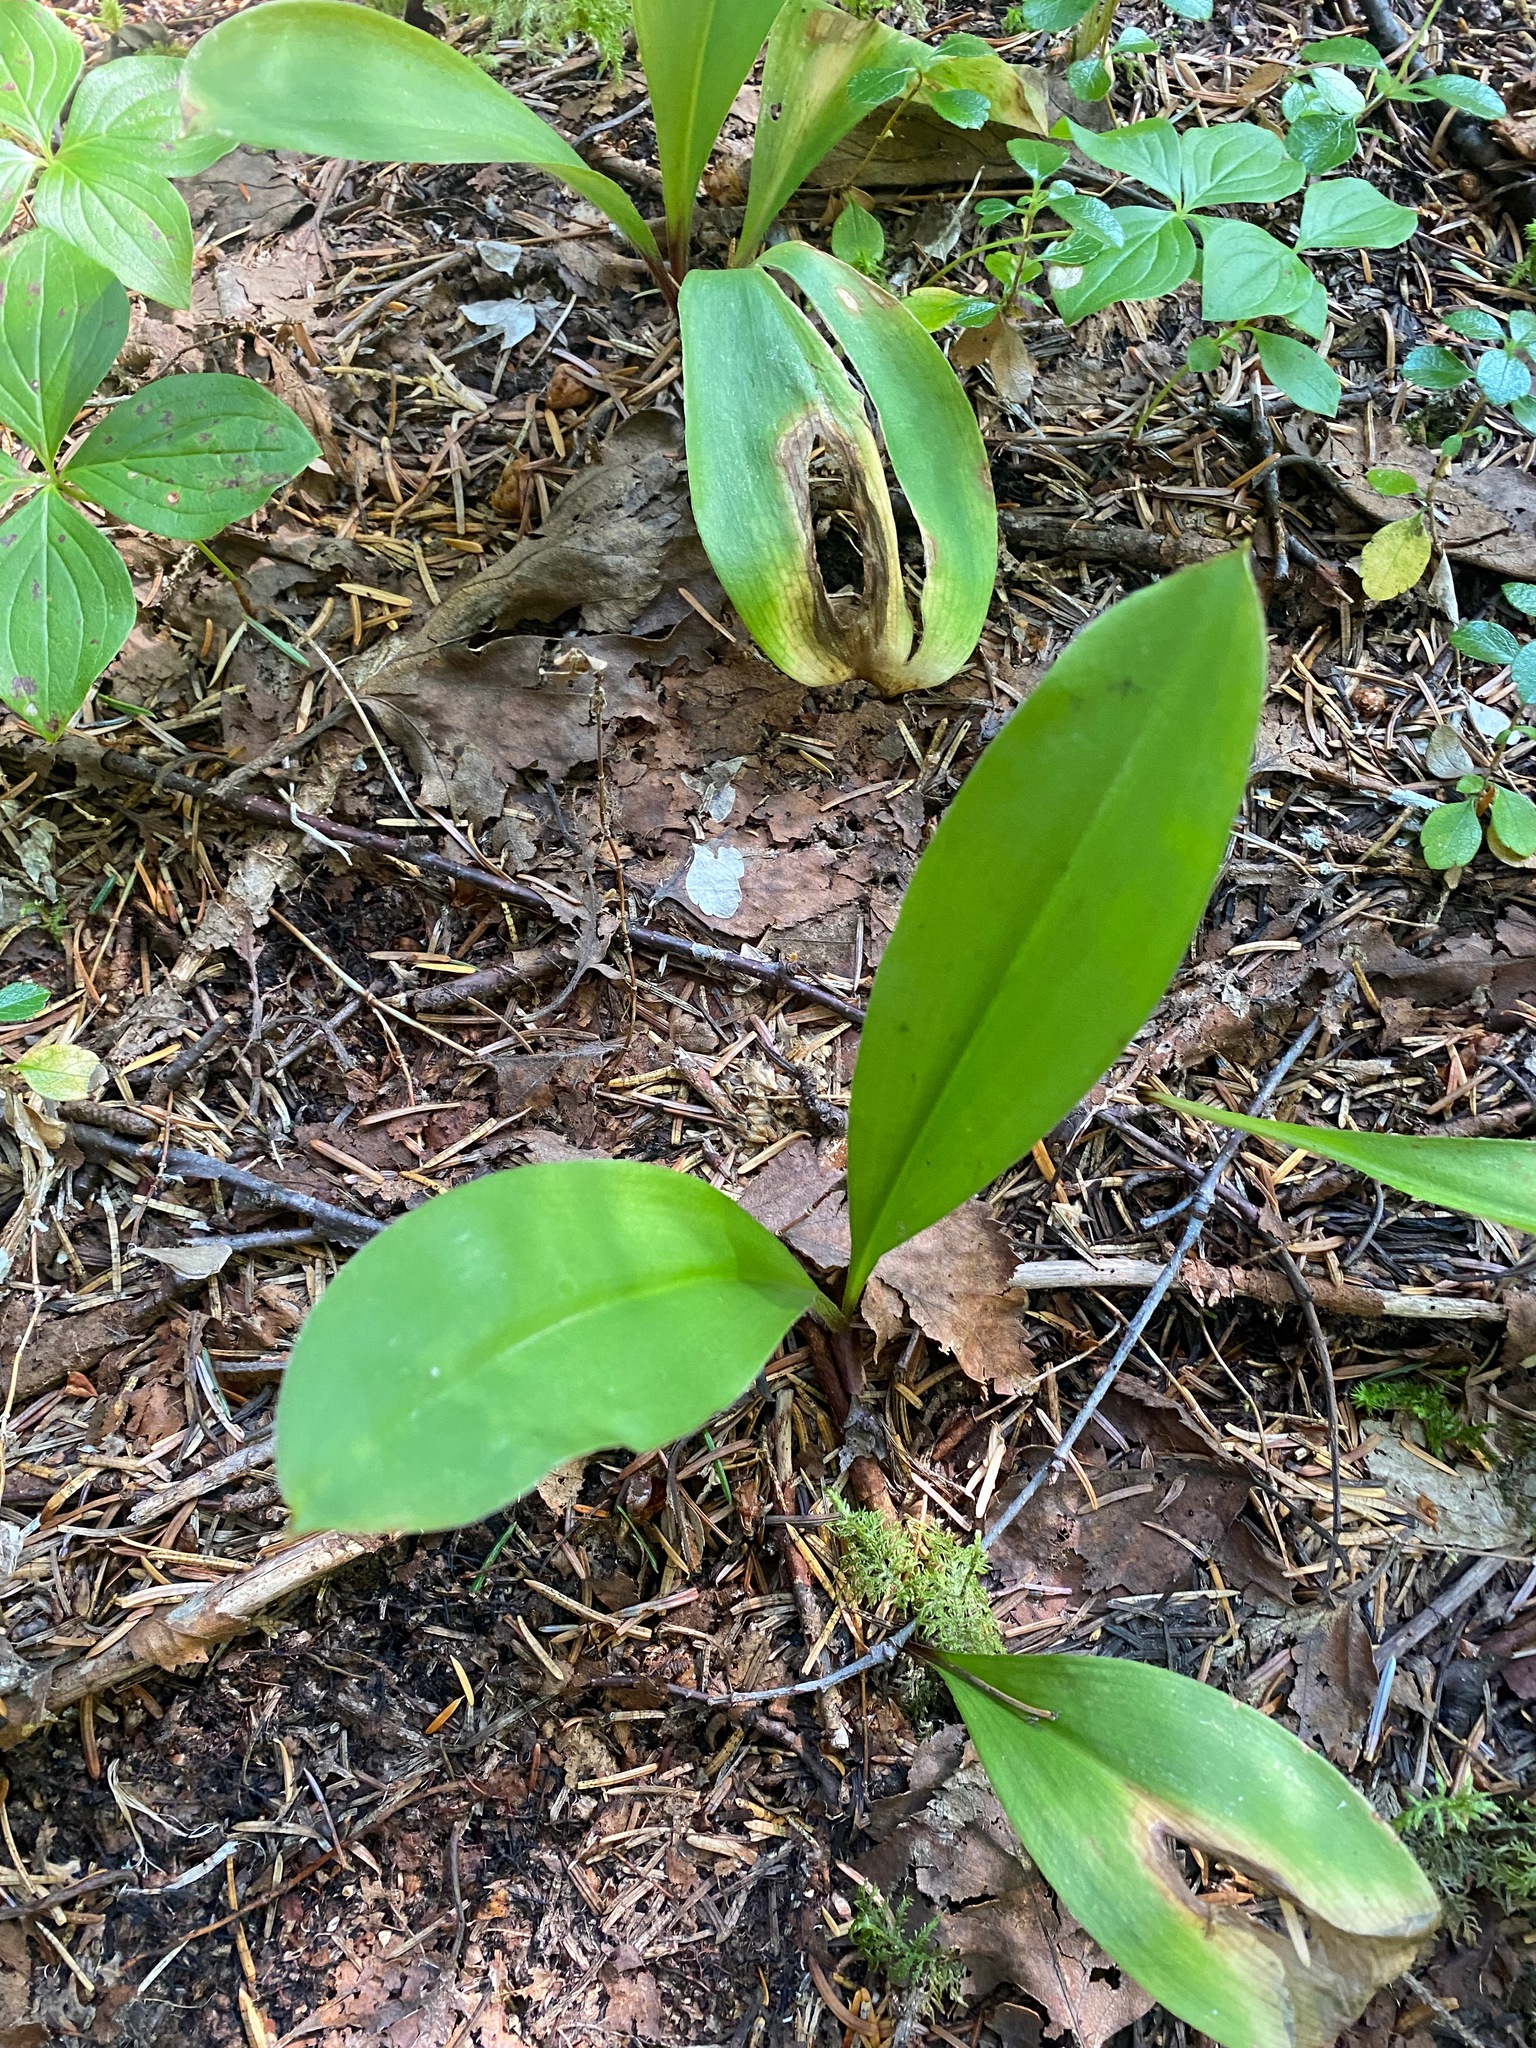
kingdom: Plantae
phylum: Tracheophyta
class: Liliopsida
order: Liliales
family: Liliaceae
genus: Clintonia
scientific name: Clintonia uniflora
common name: Queen's cup
